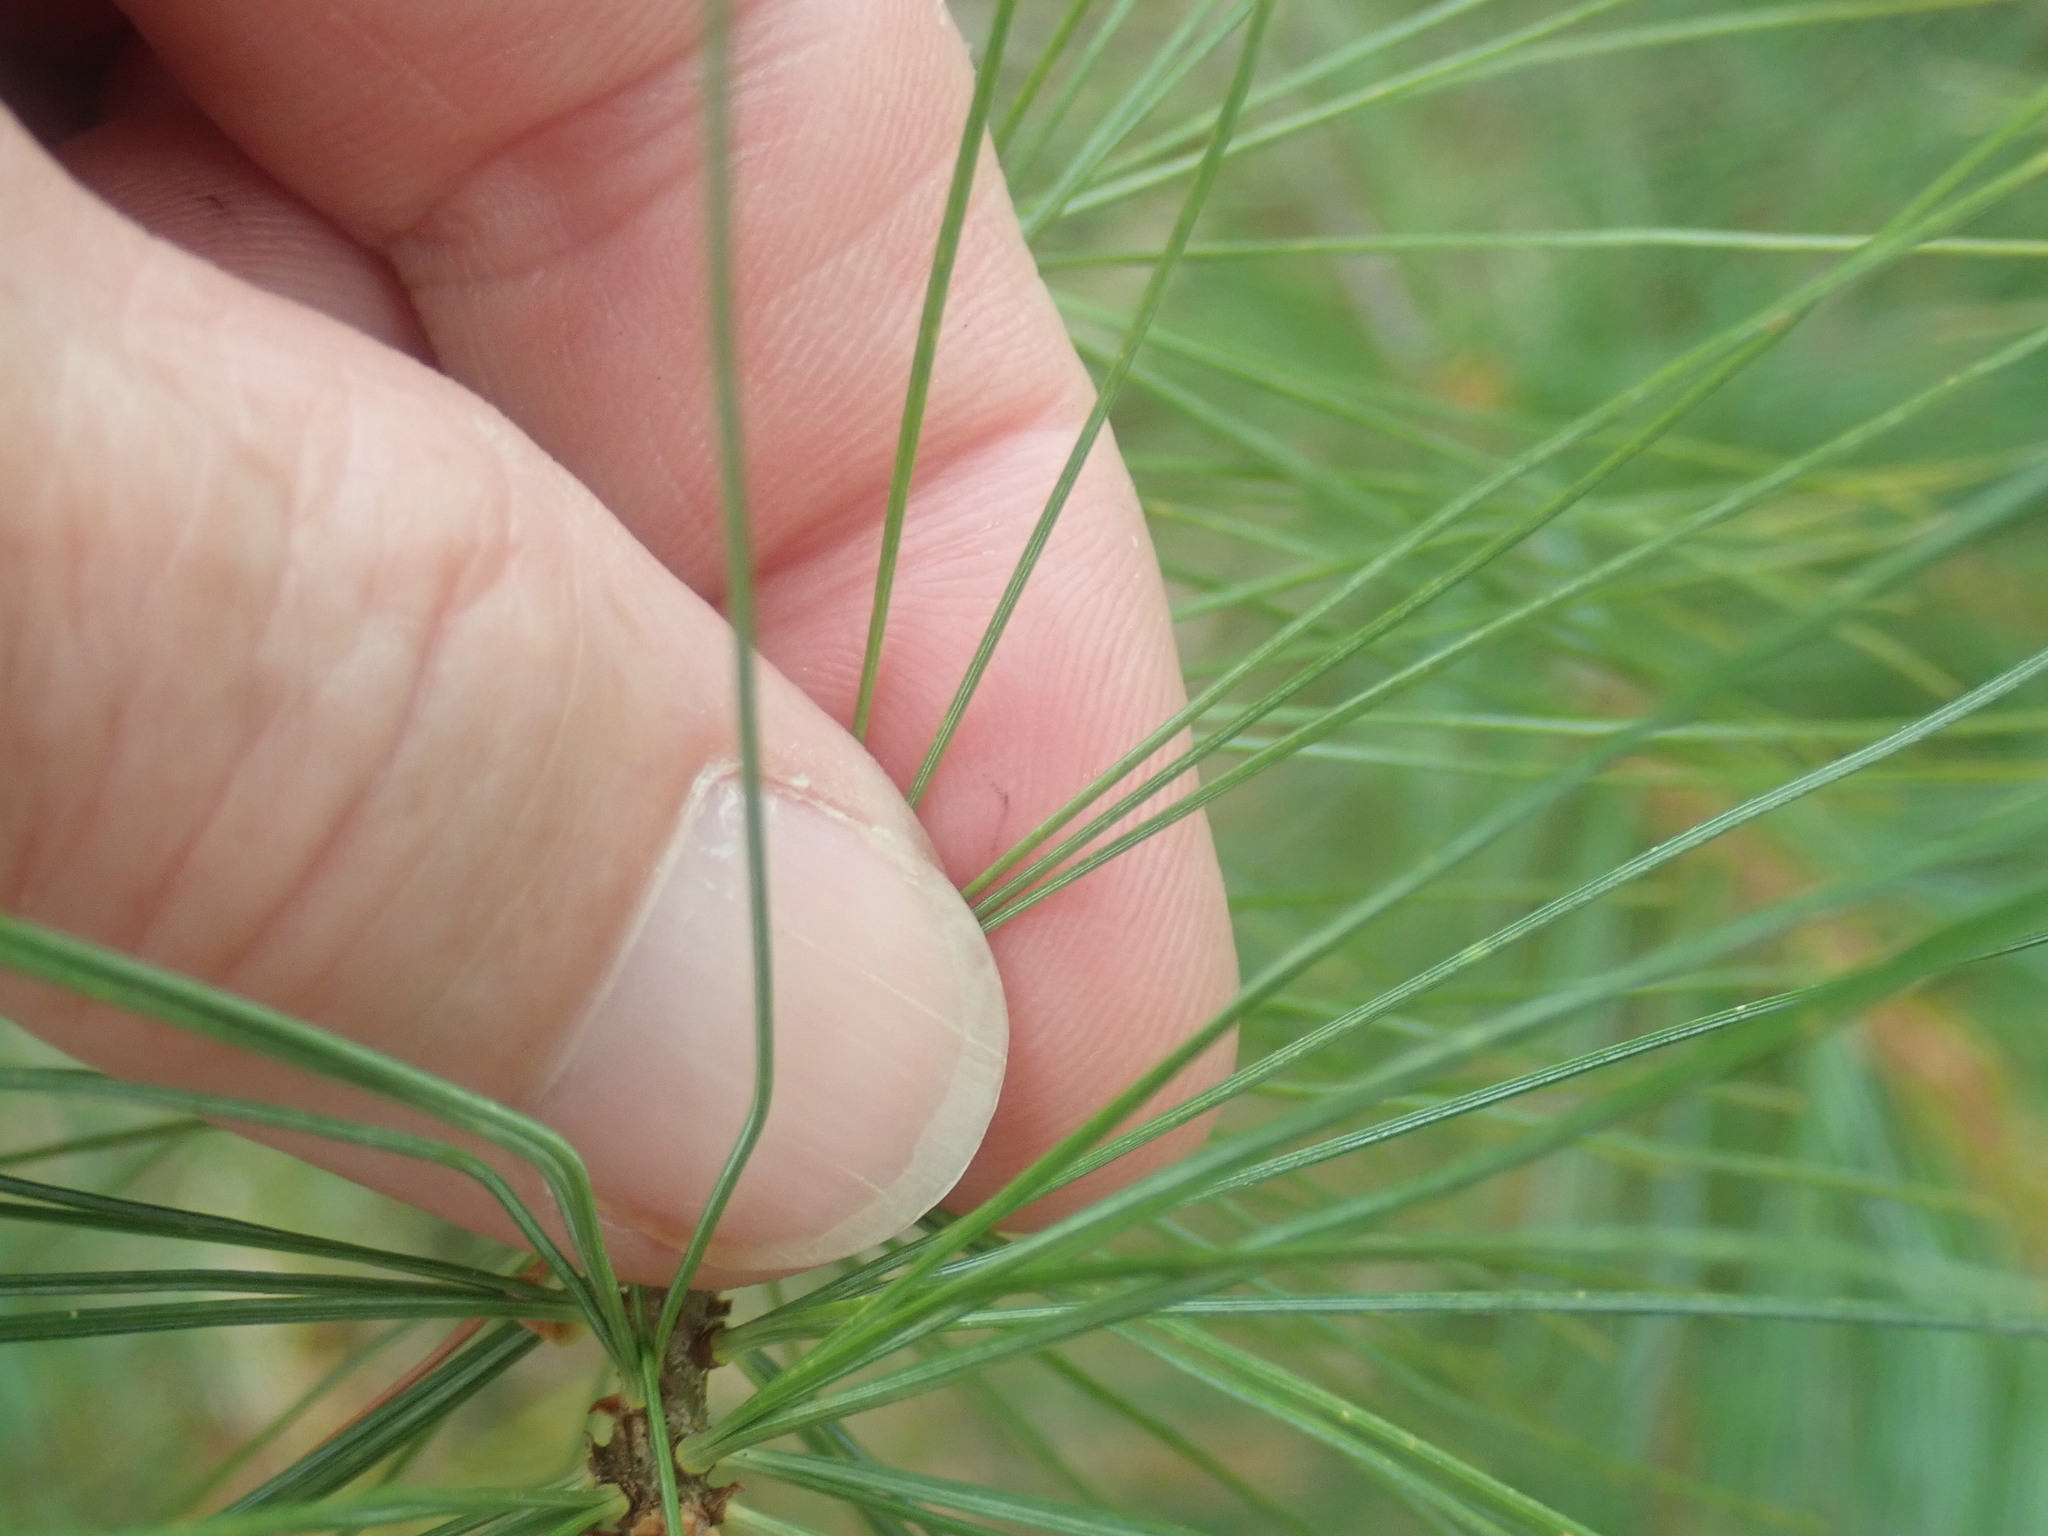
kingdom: Plantae
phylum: Tracheophyta
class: Pinopsida
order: Pinales
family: Pinaceae
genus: Pinus
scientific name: Pinus strobus
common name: Weymouth pine
